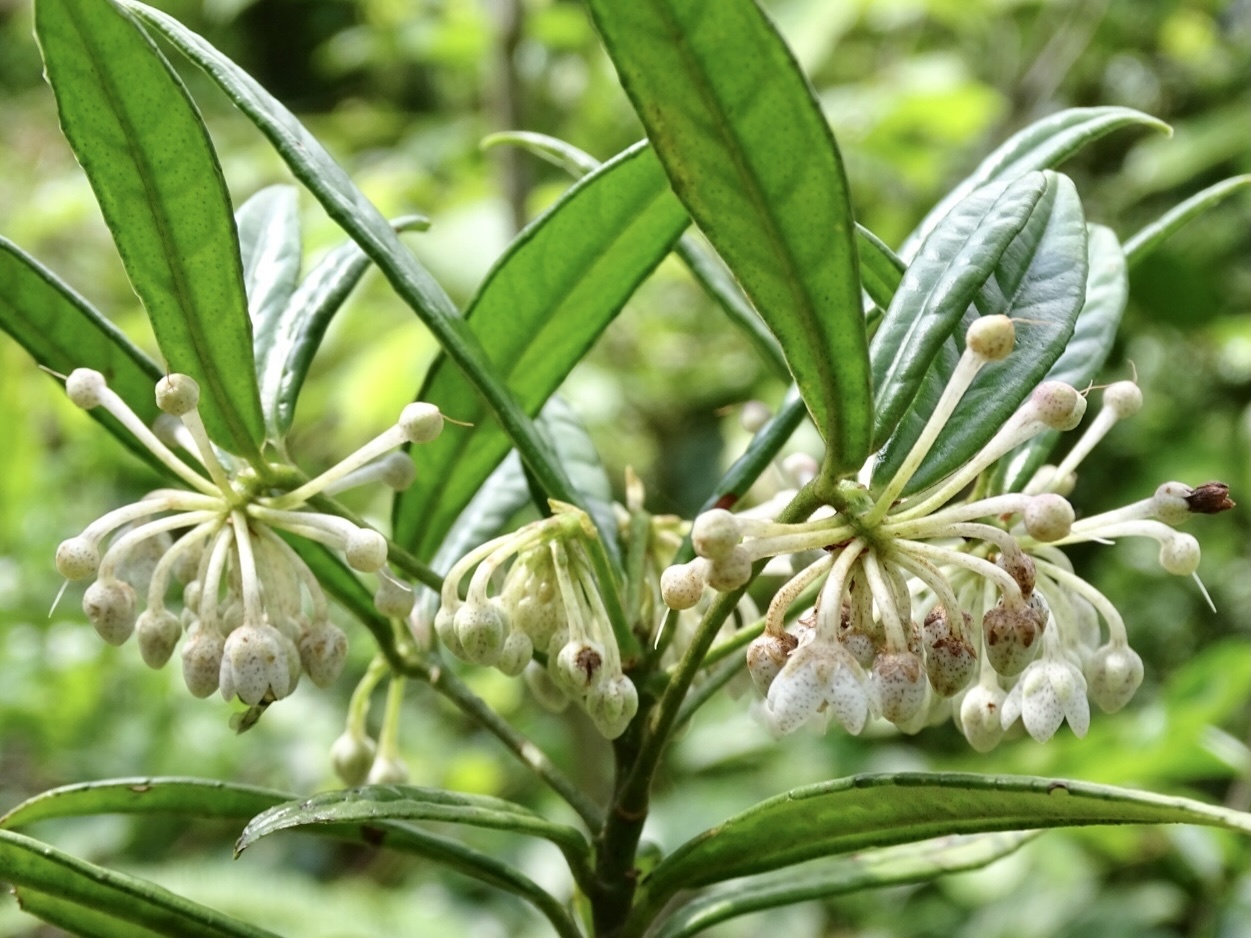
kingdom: Plantae
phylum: Tracheophyta
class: Magnoliopsida
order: Ericales
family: Primulaceae
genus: Ardisia
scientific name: Ardisia lindleyana
